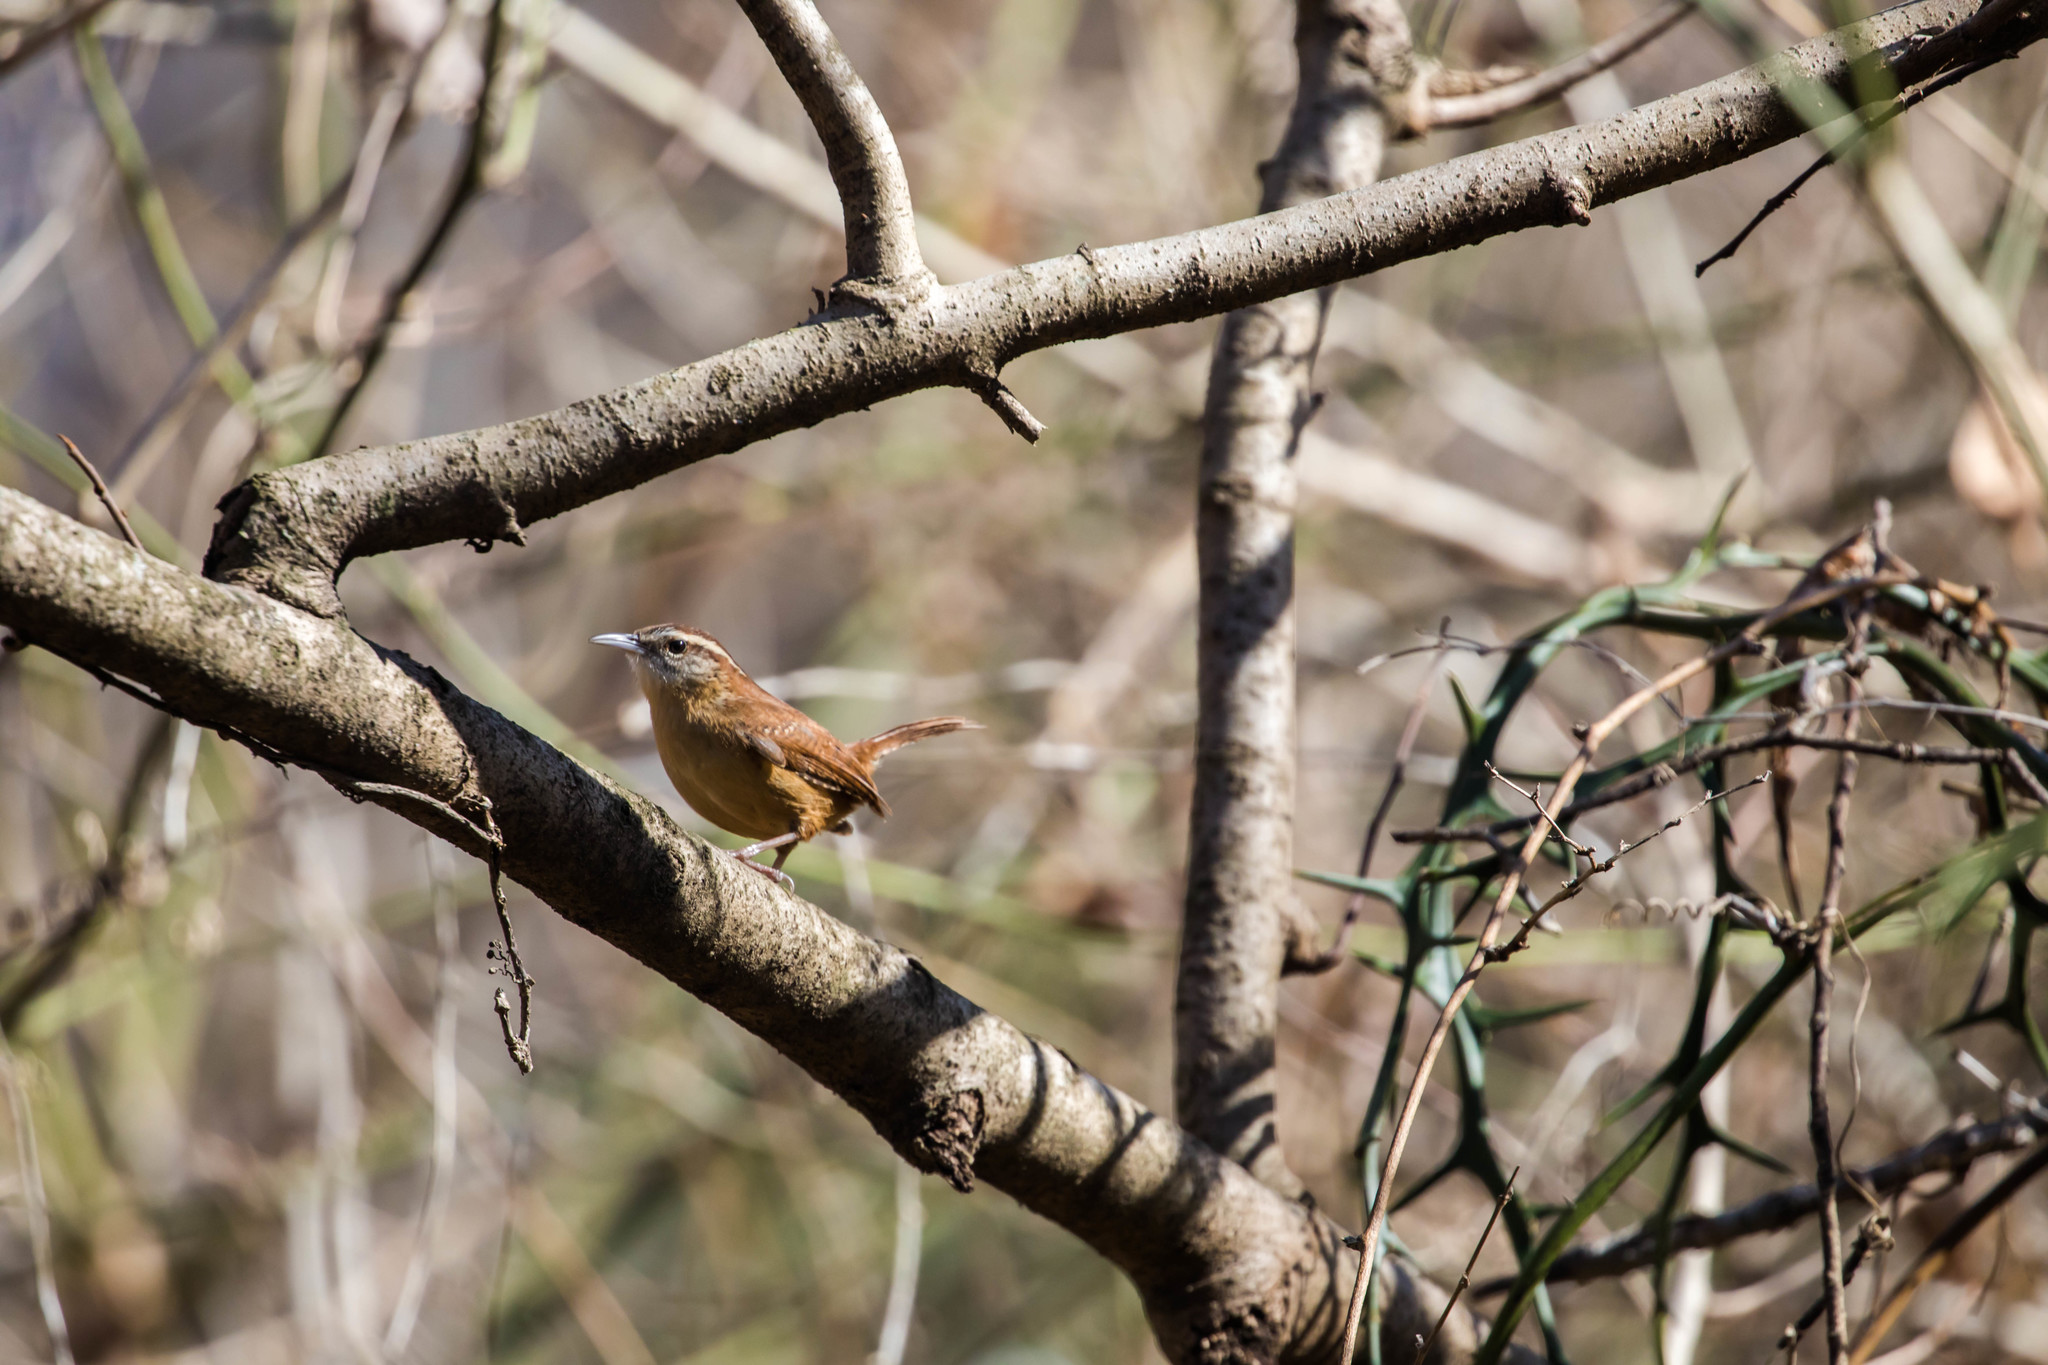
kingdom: Animalia
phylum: Chordata
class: Aves
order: Passeriformes
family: Troglodytidae
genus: Thryothorus
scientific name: Thryothorus ludovicianus
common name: Carolina wren
